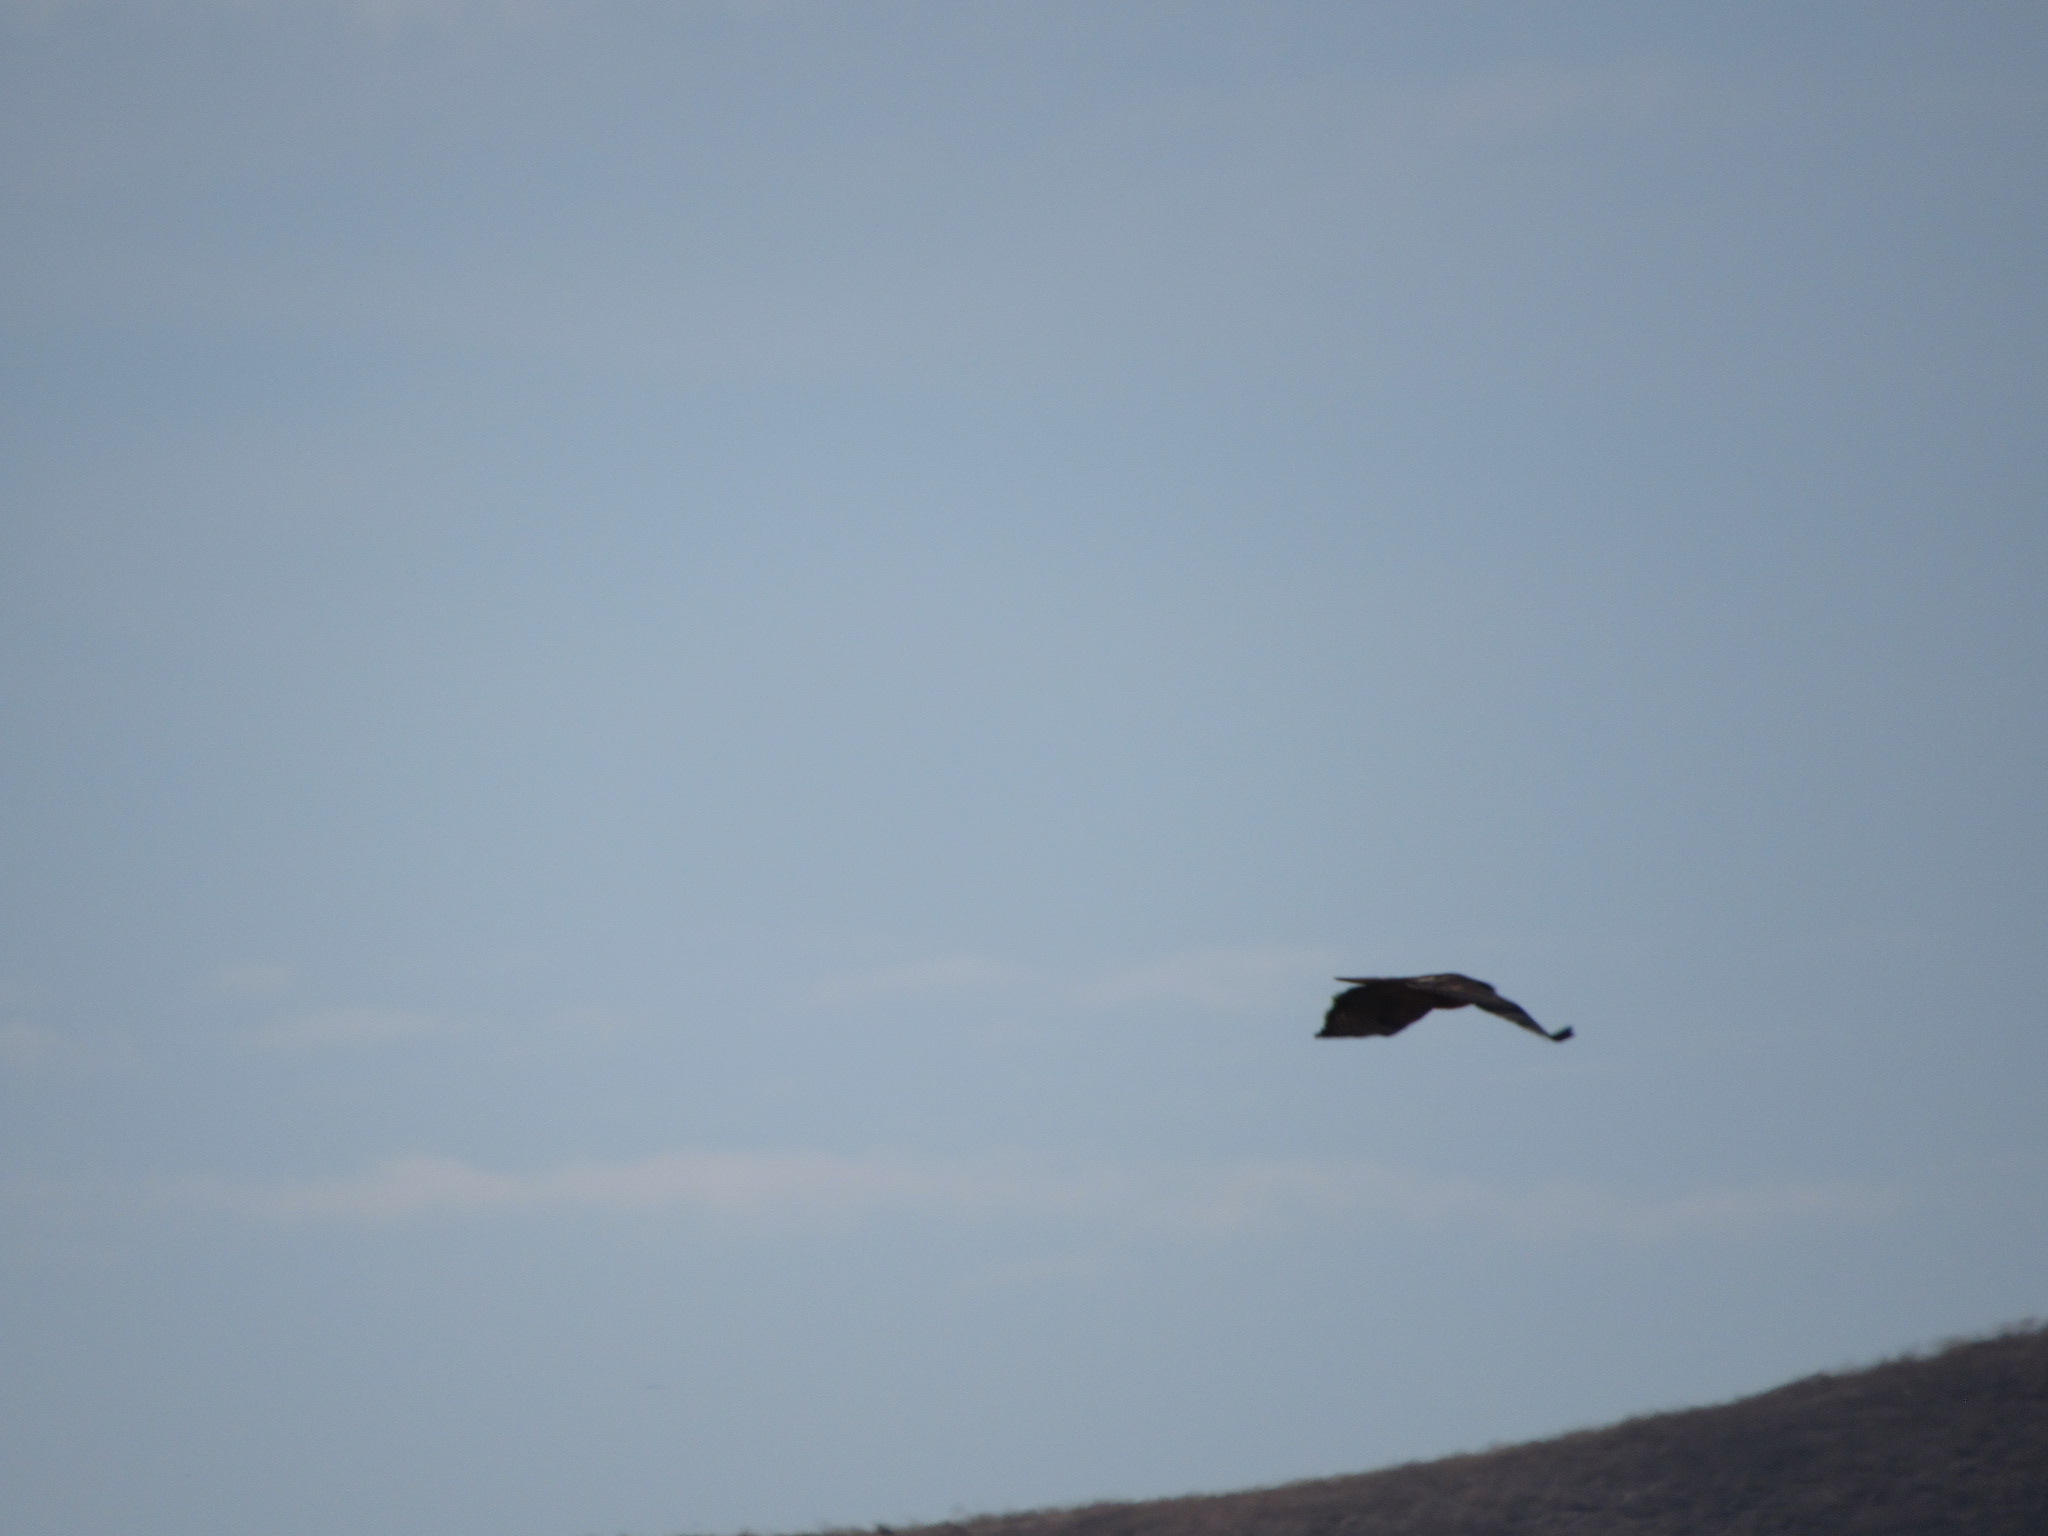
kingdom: Animalia
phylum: Chordata
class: Aves
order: Accipitriformes
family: Accipitridae
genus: Buteo
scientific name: Buteo jamaicensis
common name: Red-tailed hawk
